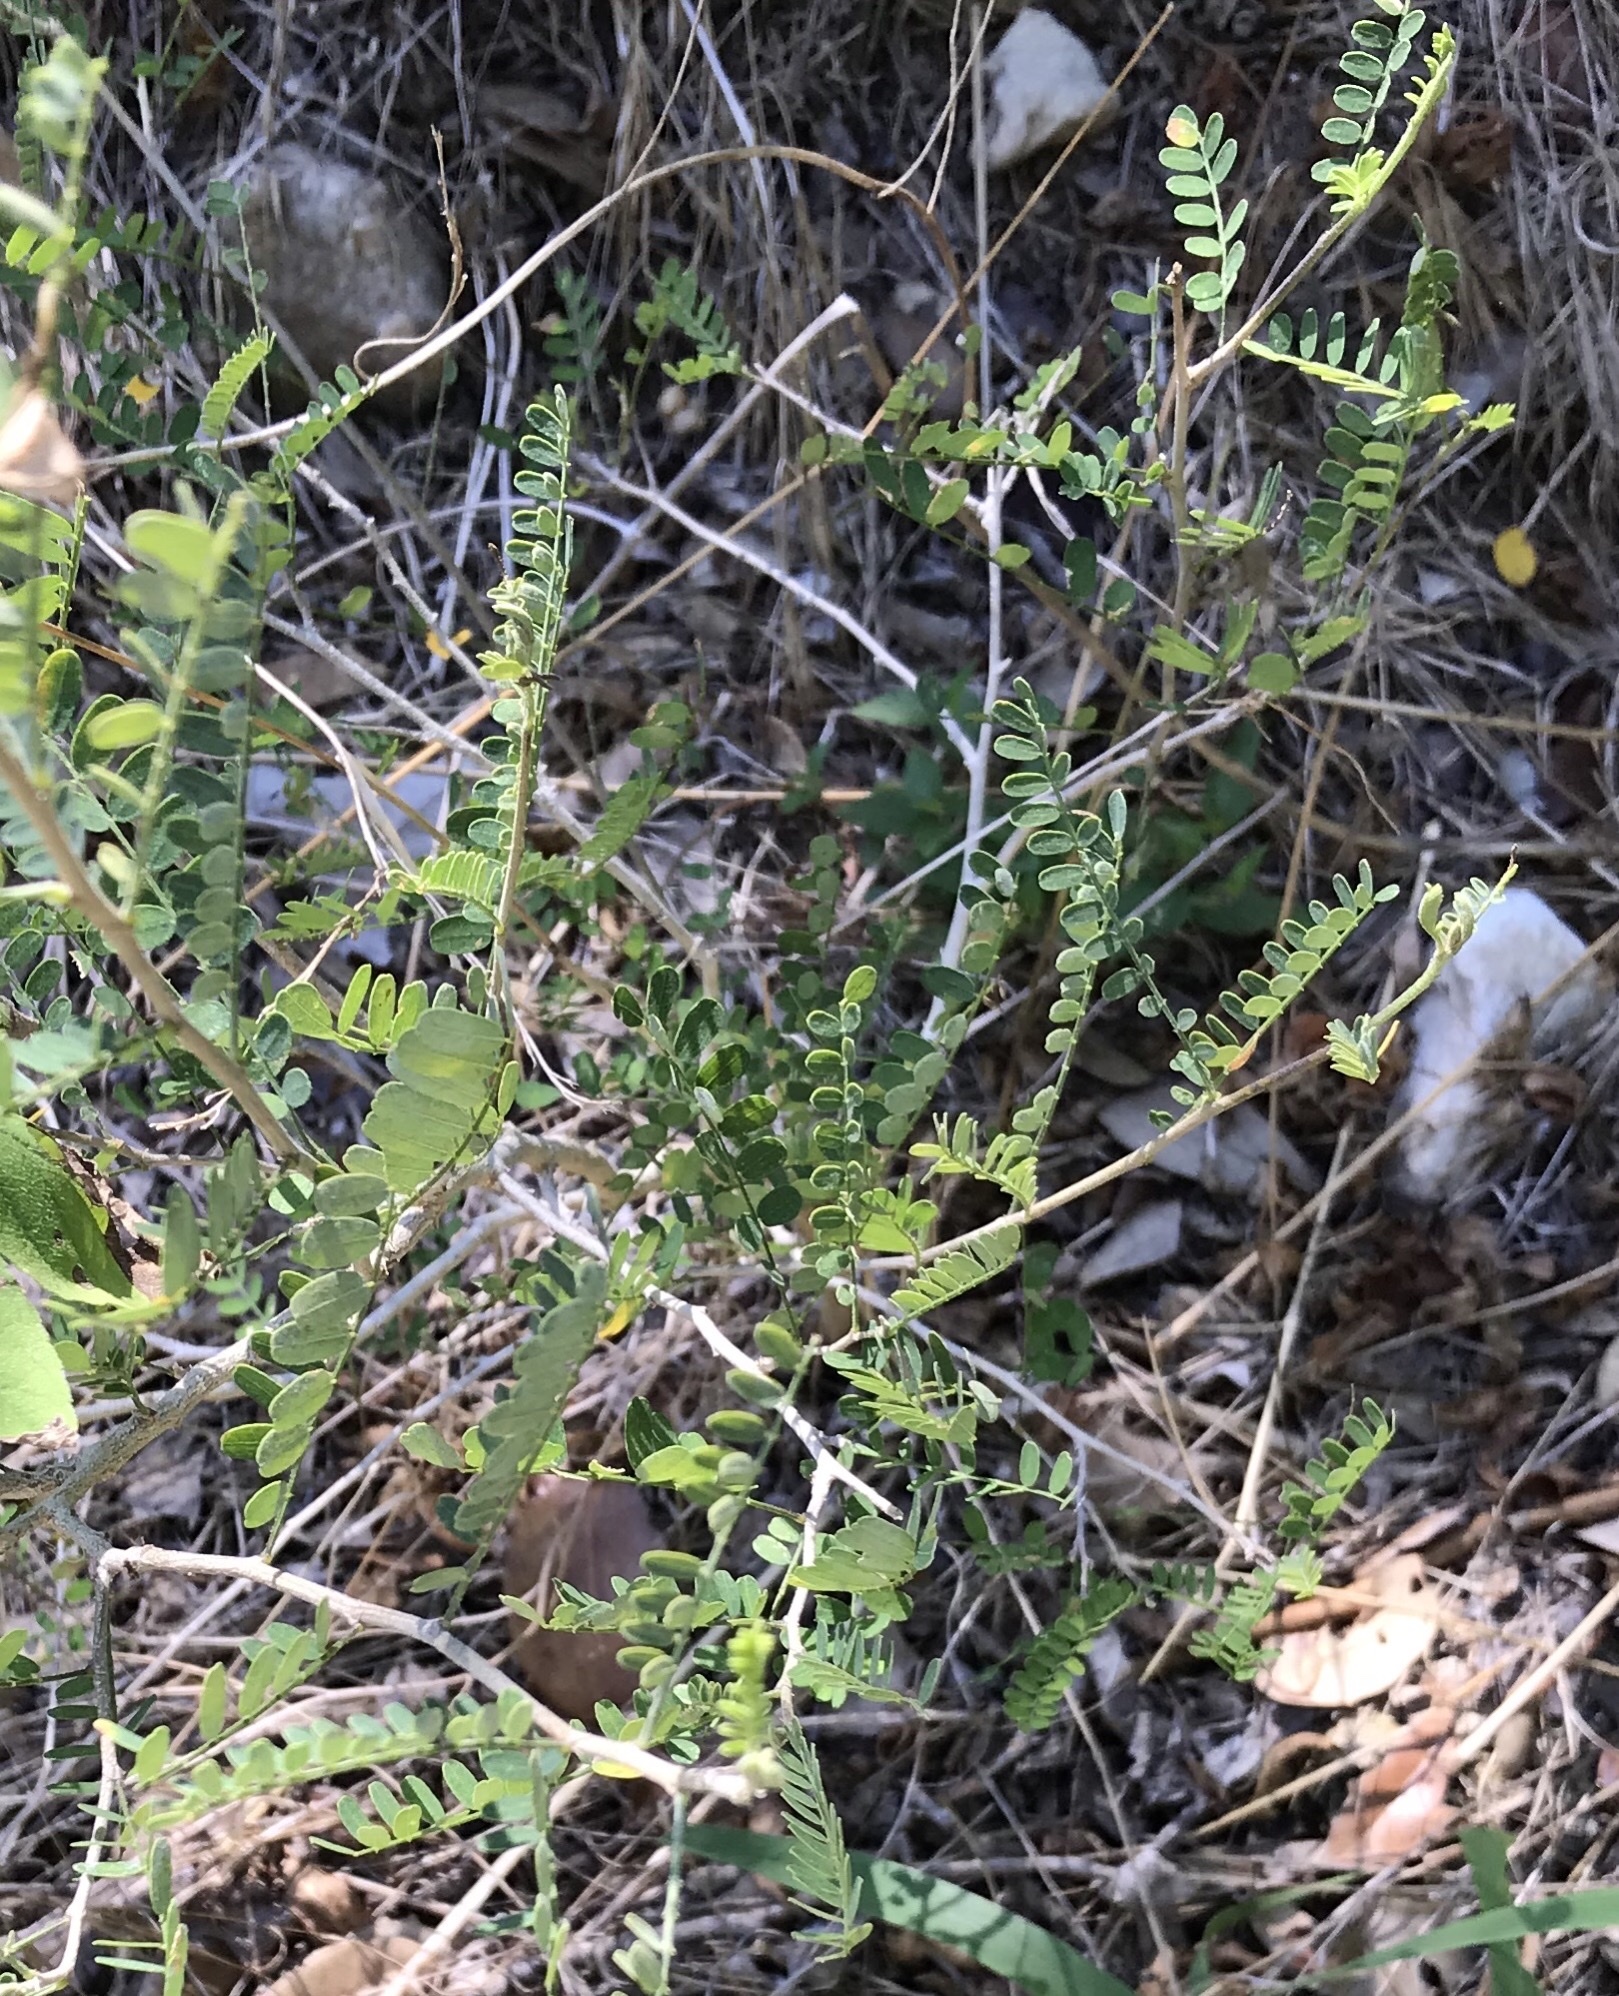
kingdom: Plantae
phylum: Tracheophyta
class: Magnoliopsida
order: Fabales
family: Fabaceae
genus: Eysenhardtia
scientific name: Eysenhardtia texana
